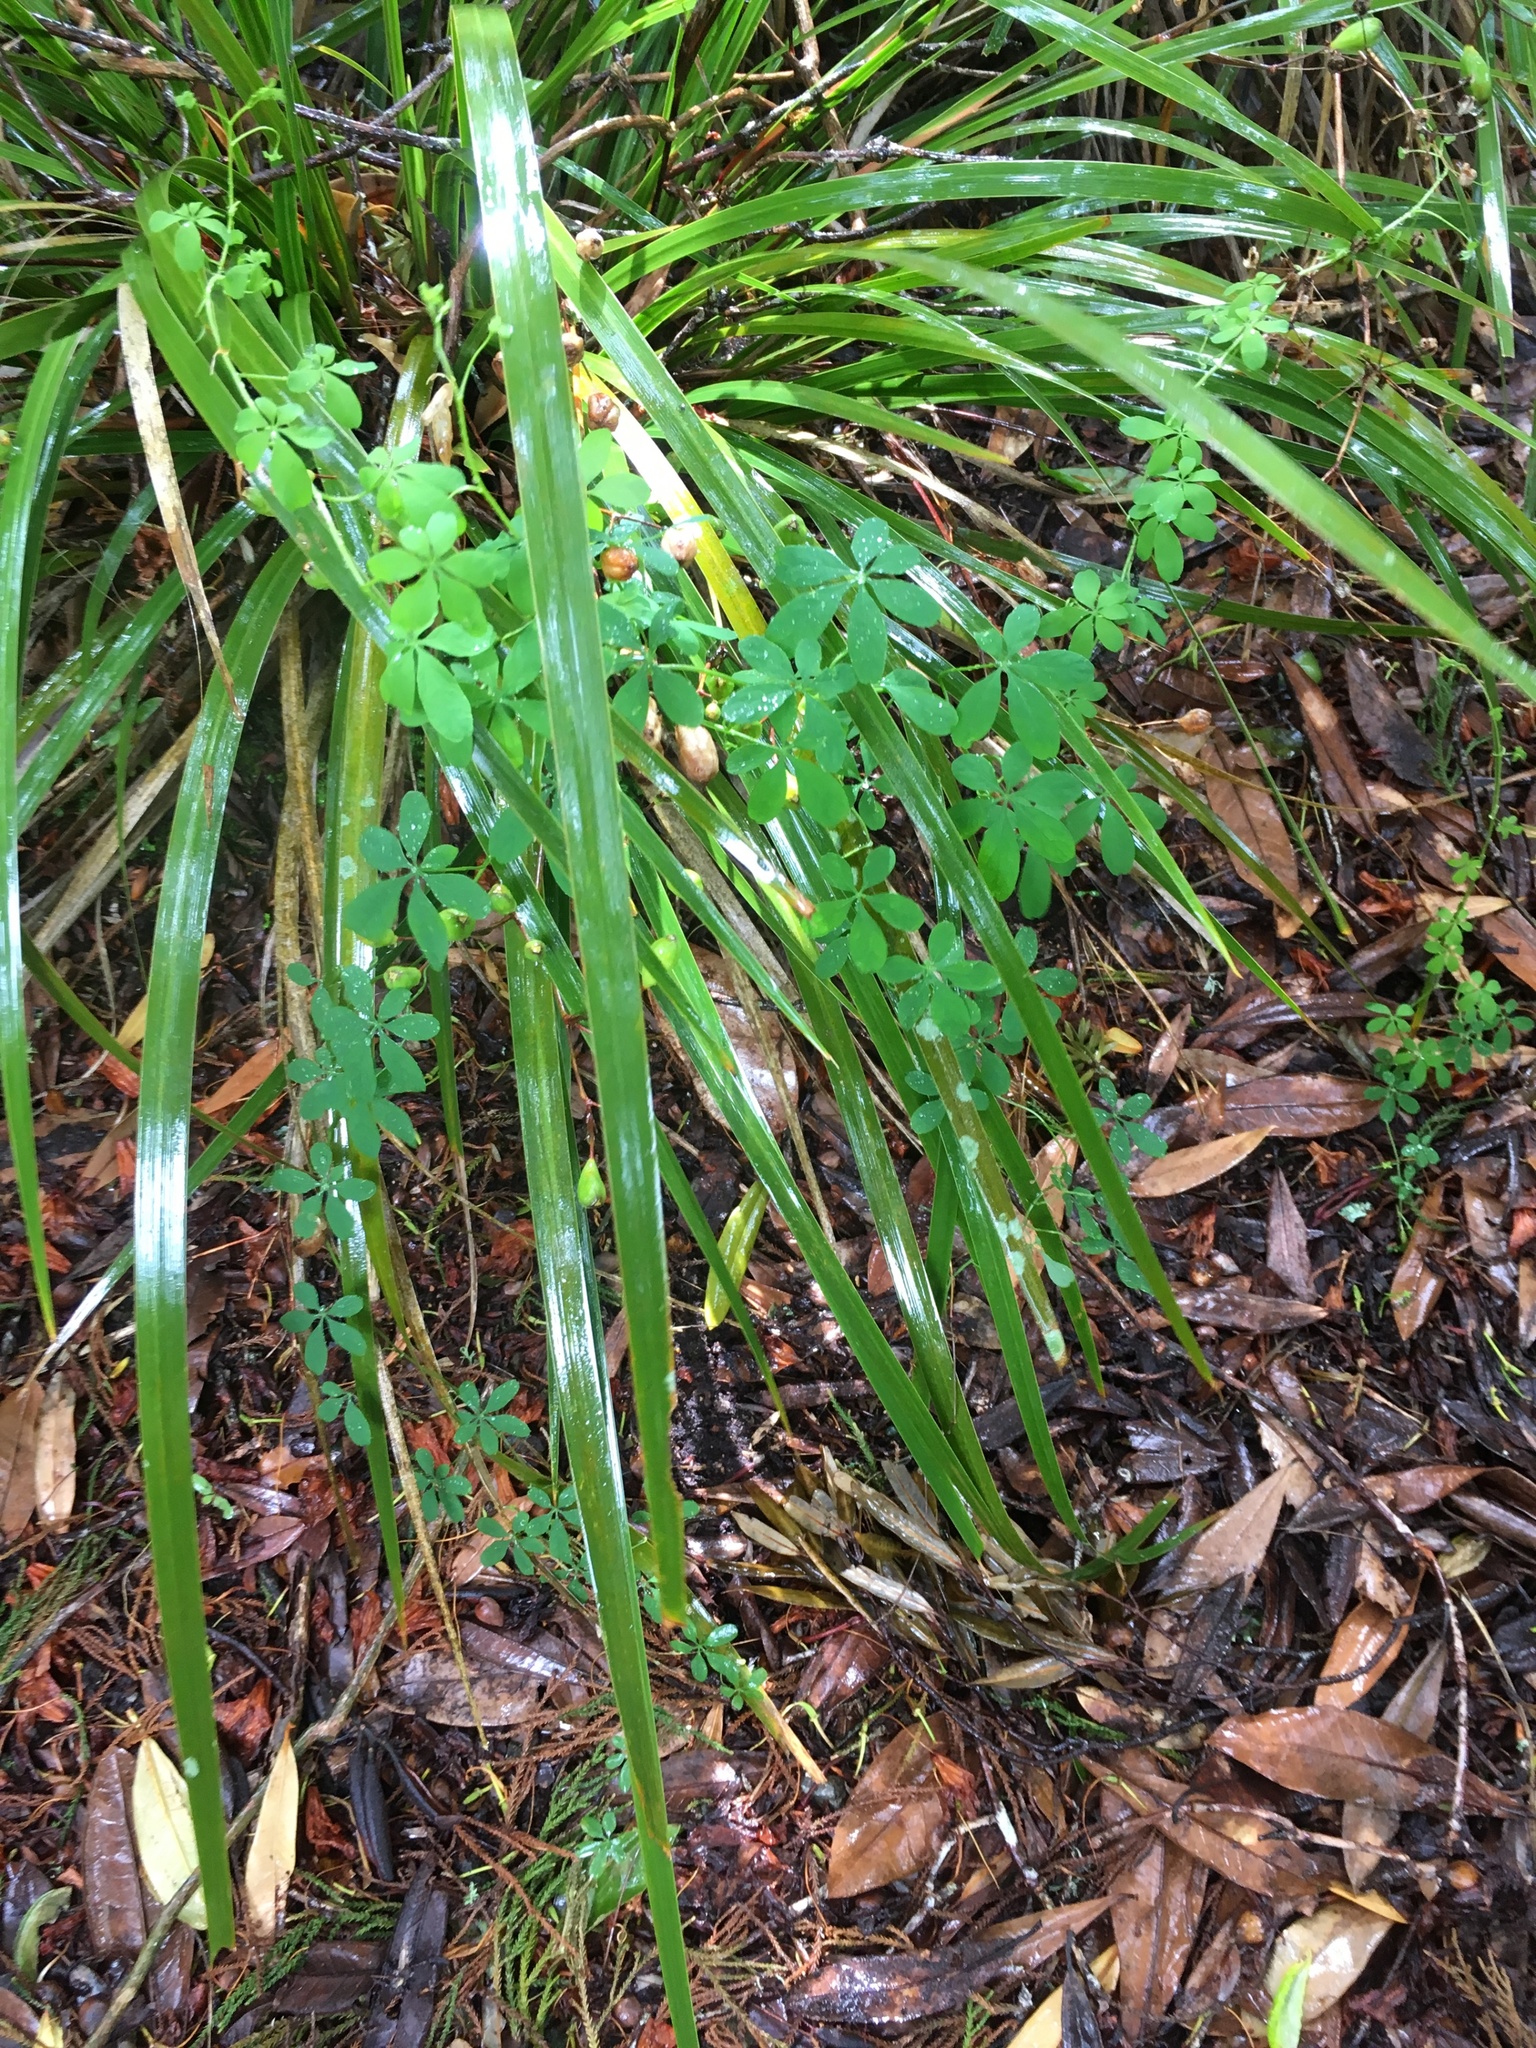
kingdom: Plantae
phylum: Tracheophyta
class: Magnoliopsida
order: Brassicales
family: Tropaeolaceae
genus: Tropaeolum
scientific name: Tropaeolum speciosum
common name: Flame nasturtium
